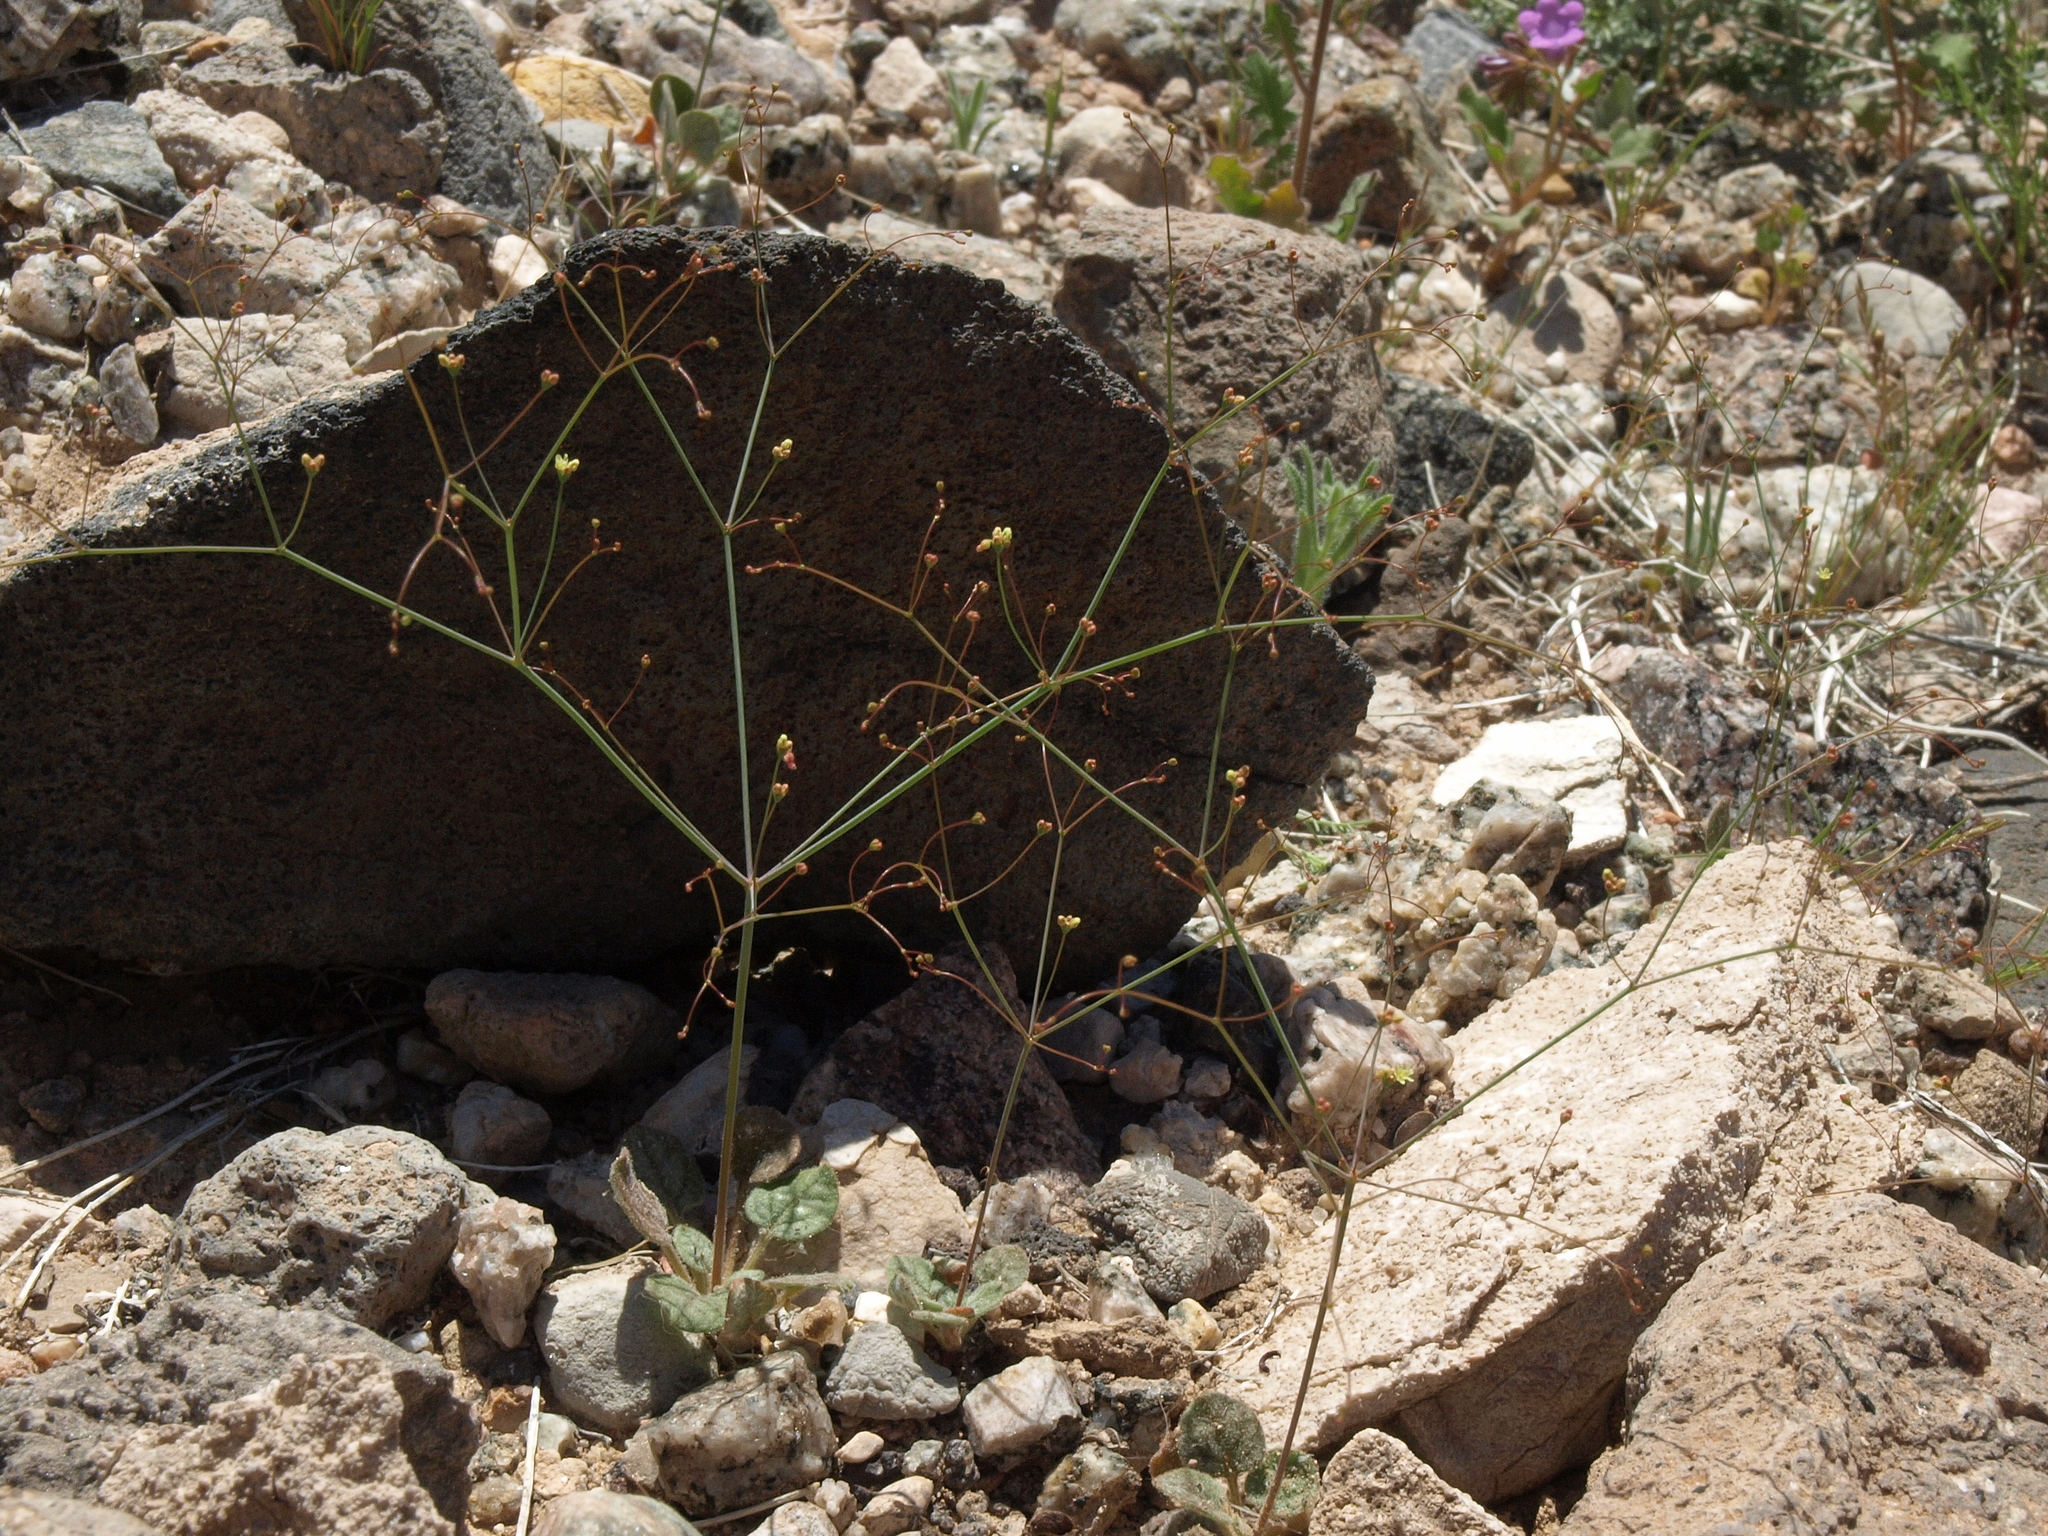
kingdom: Plantae
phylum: Tracheophyta
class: Magnoliopsida
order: Caryophyllales
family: Polygonaceae
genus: Eriogonum
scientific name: Eriogonum trichopes
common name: Little desert trumpet
